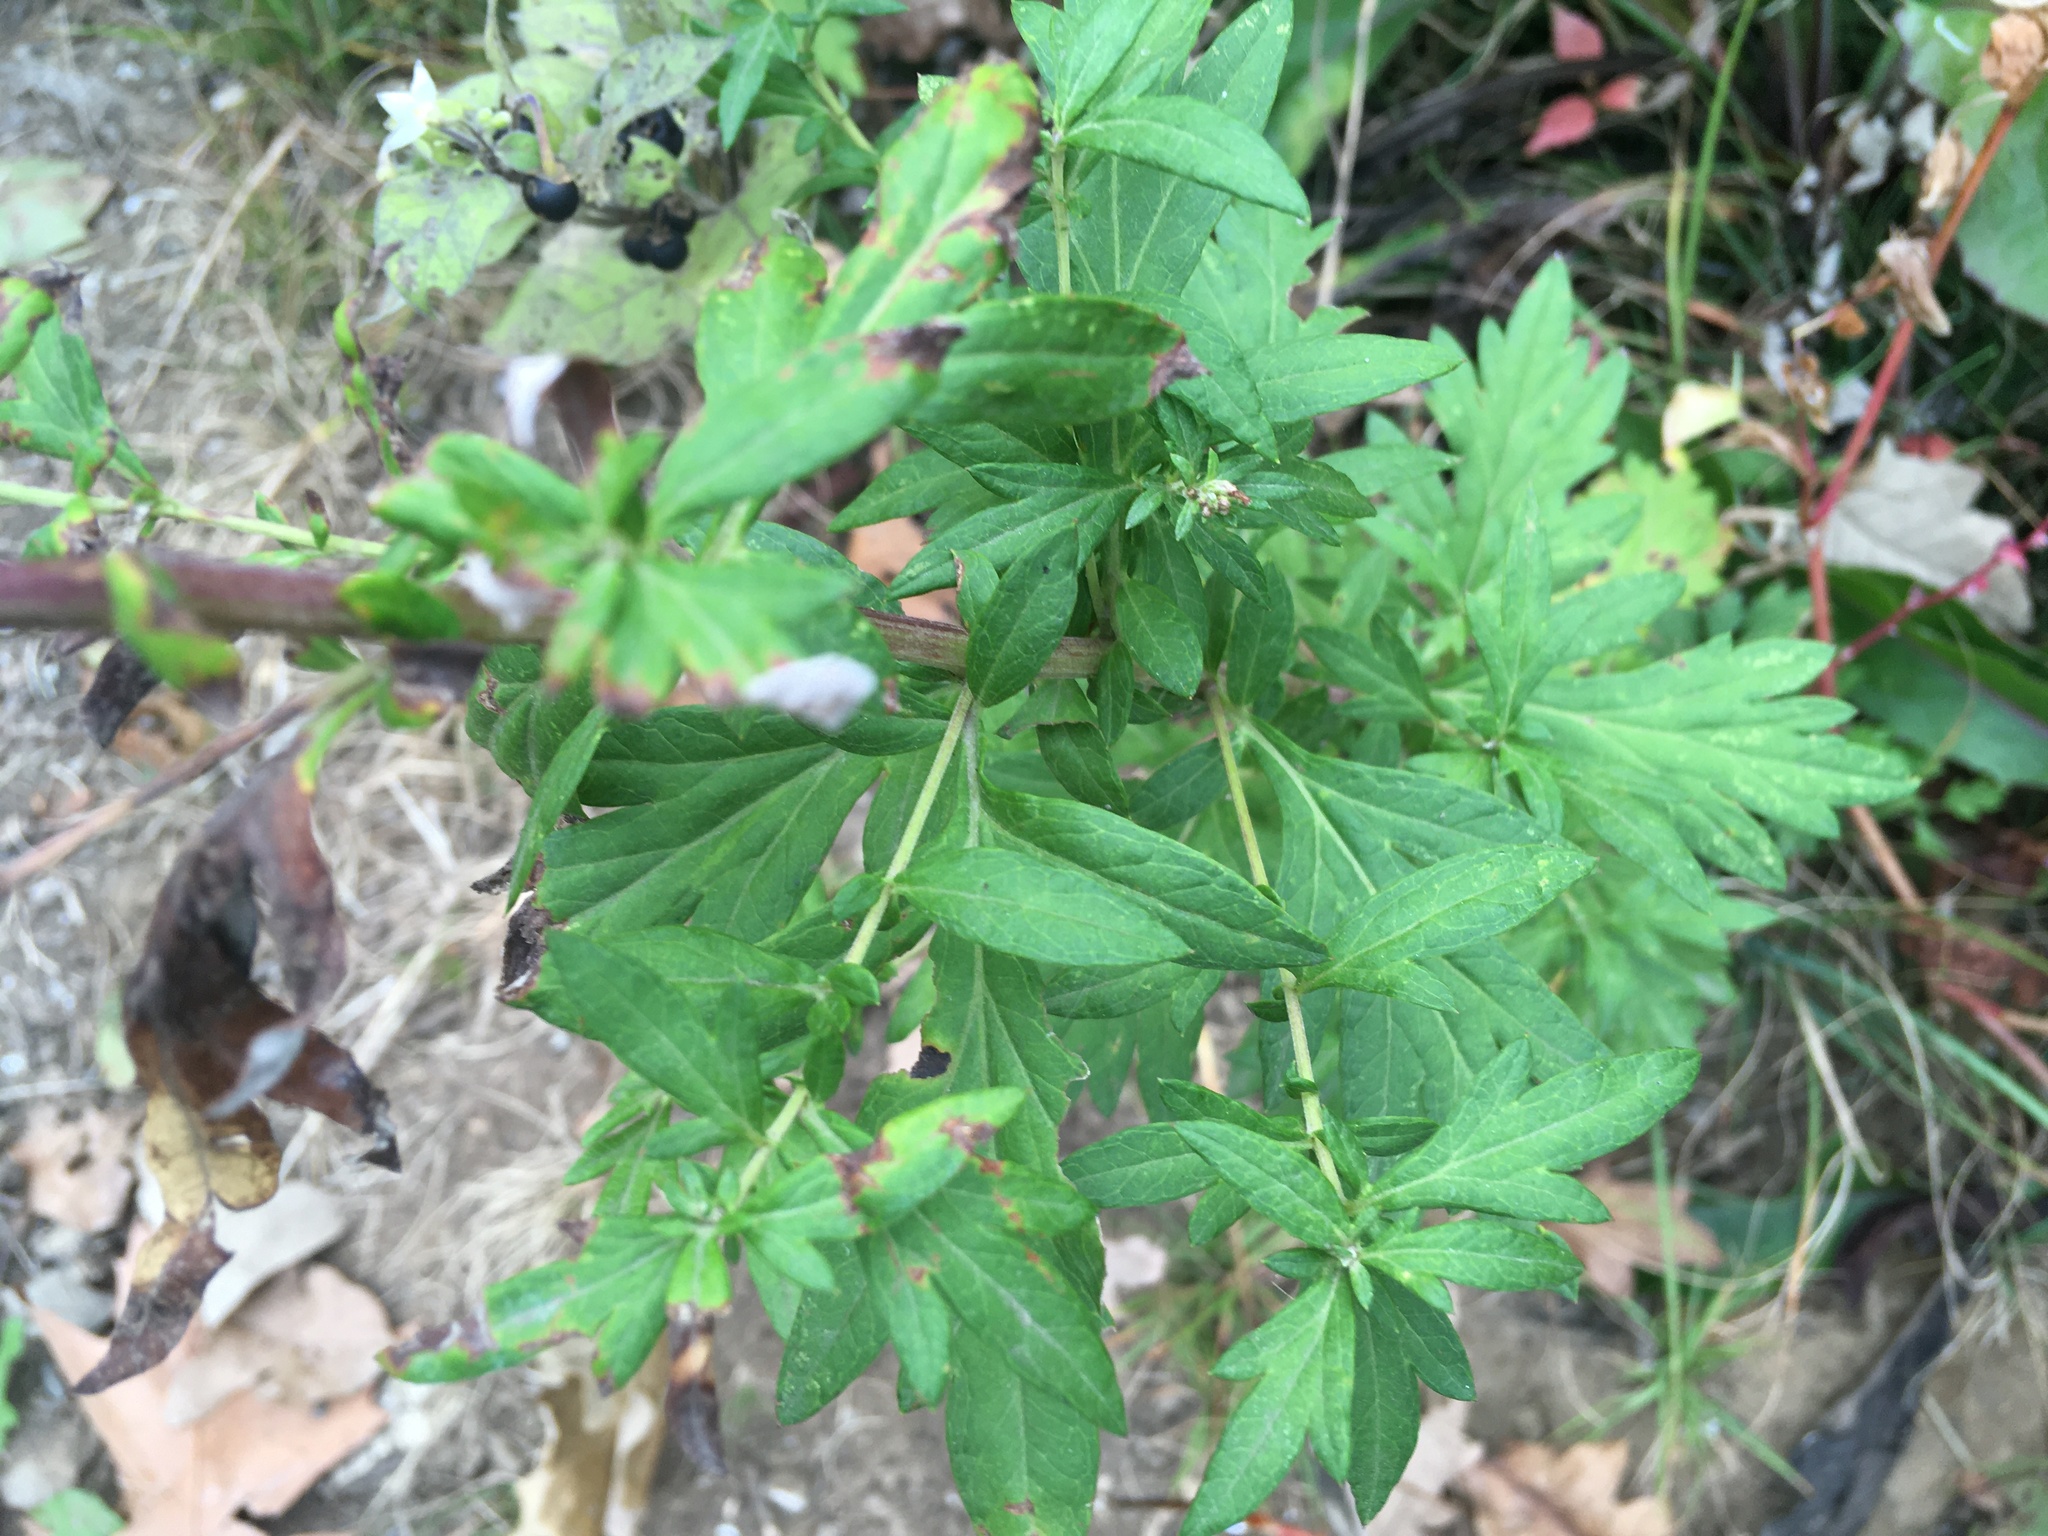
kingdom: Plantae
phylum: Tracheophyta
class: Magnoliopsida
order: Asterales
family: Asteraceae
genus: Artemisia
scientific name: Artemisia vulgaris
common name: Mugwort
